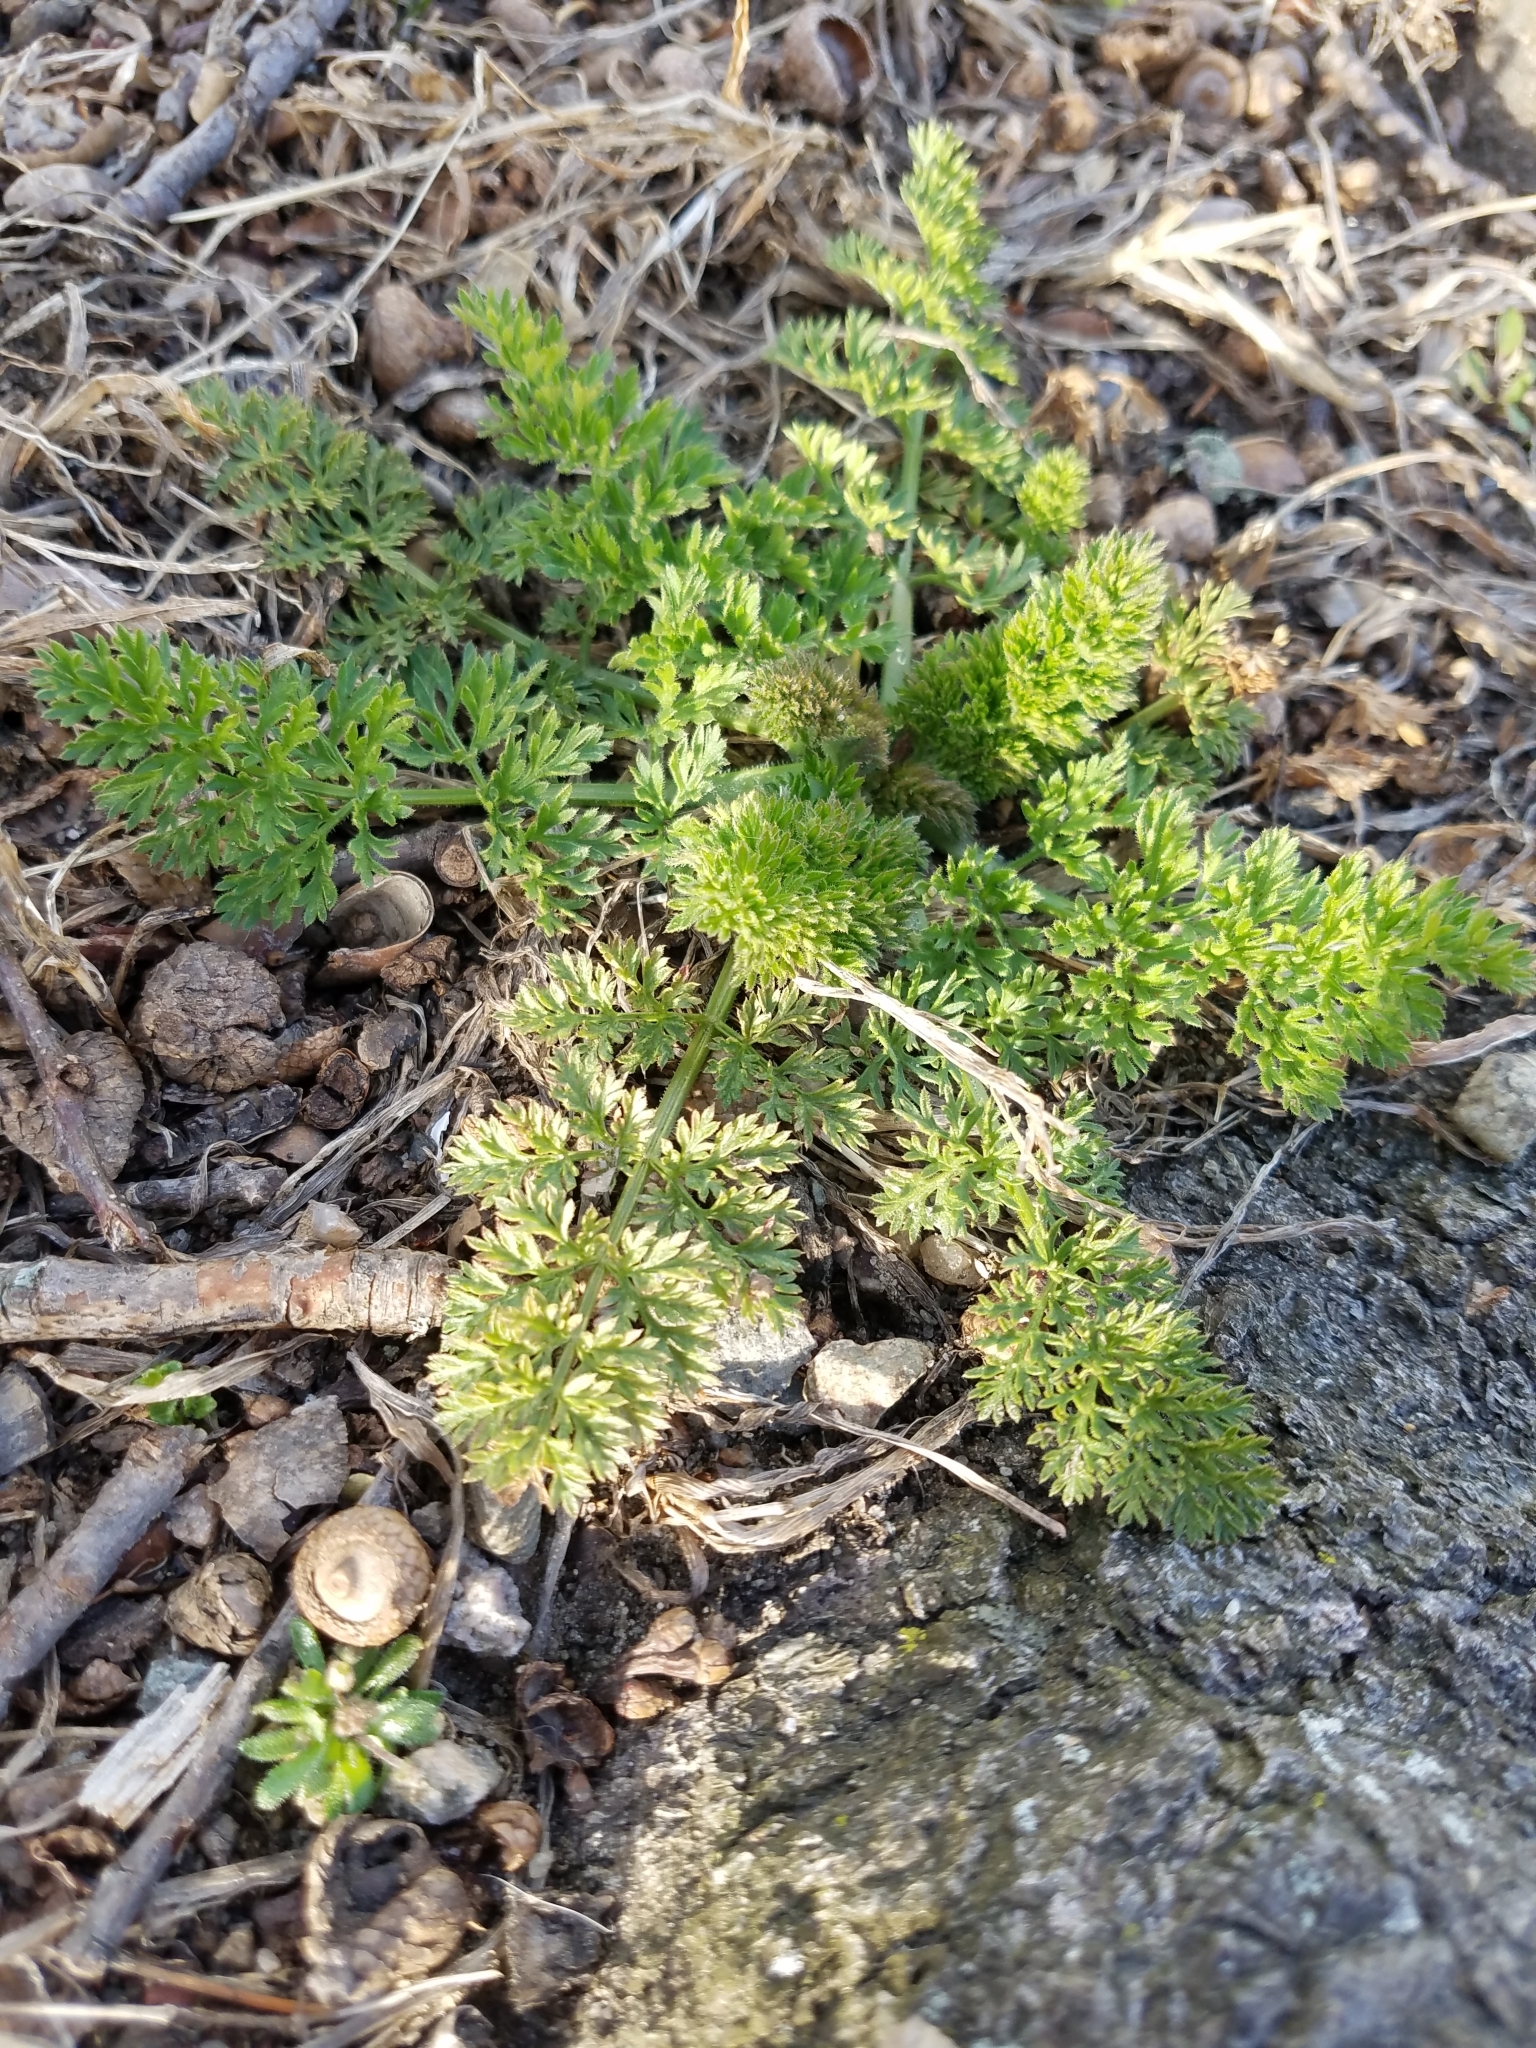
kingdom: Plantae
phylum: Tracheophyta
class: Magnoliopsida
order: Apiales
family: Apiaceae
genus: Daucus
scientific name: Daucus carota
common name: Wild carrot
